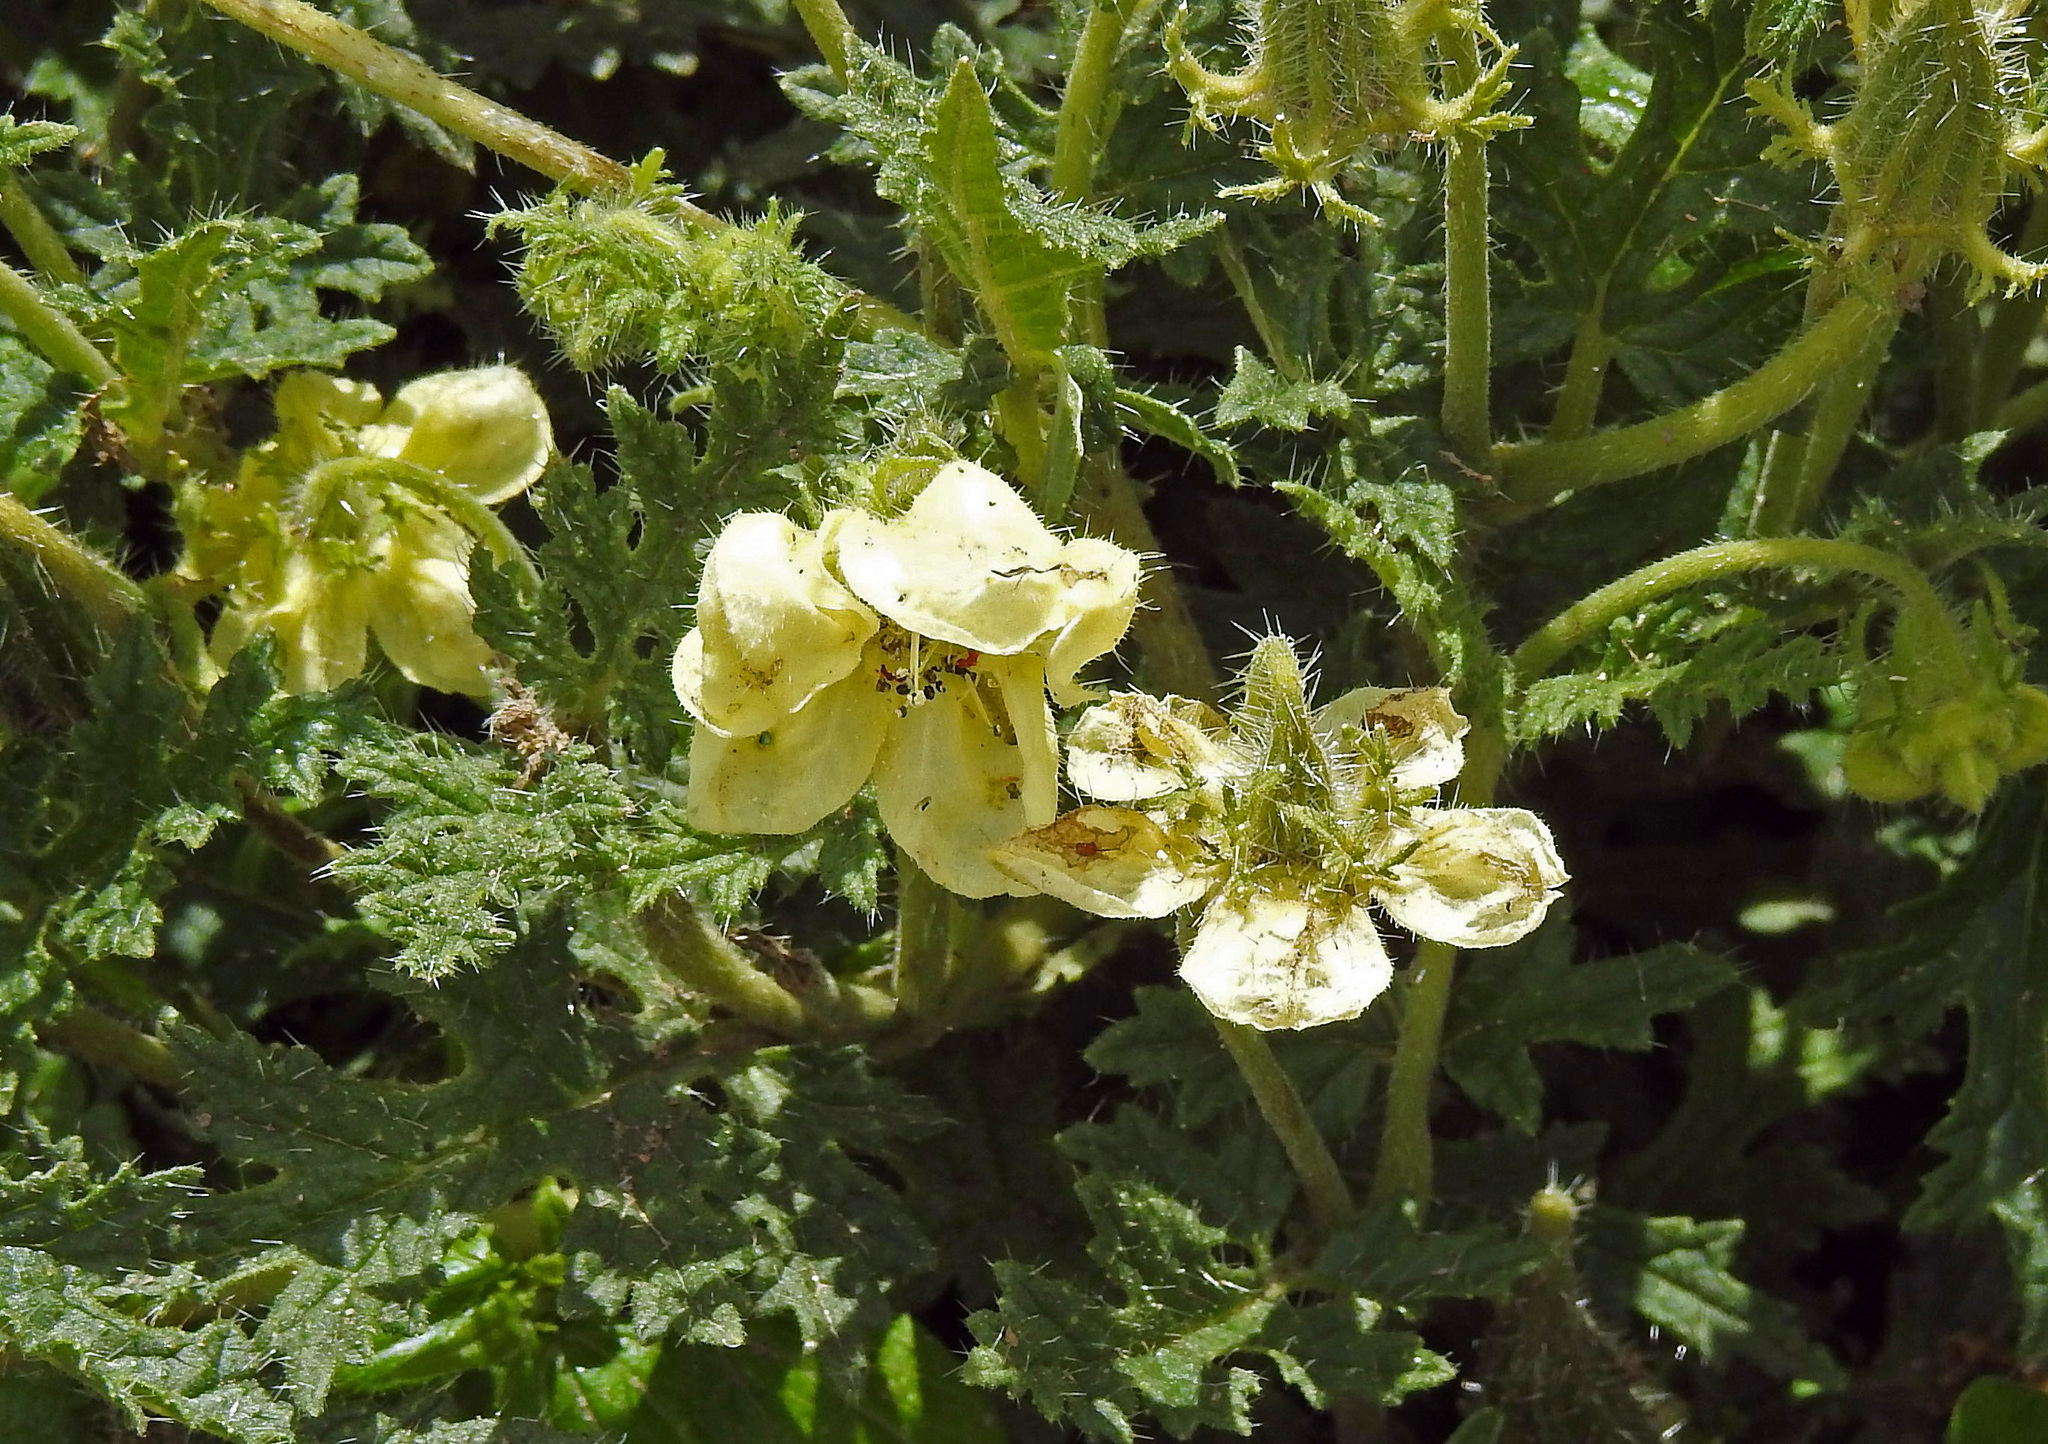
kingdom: Plantae
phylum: Tracheophyta
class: Magnoliopsida
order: Cornales
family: Loasaceae
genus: Caiophora
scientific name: Caiophora clavata
